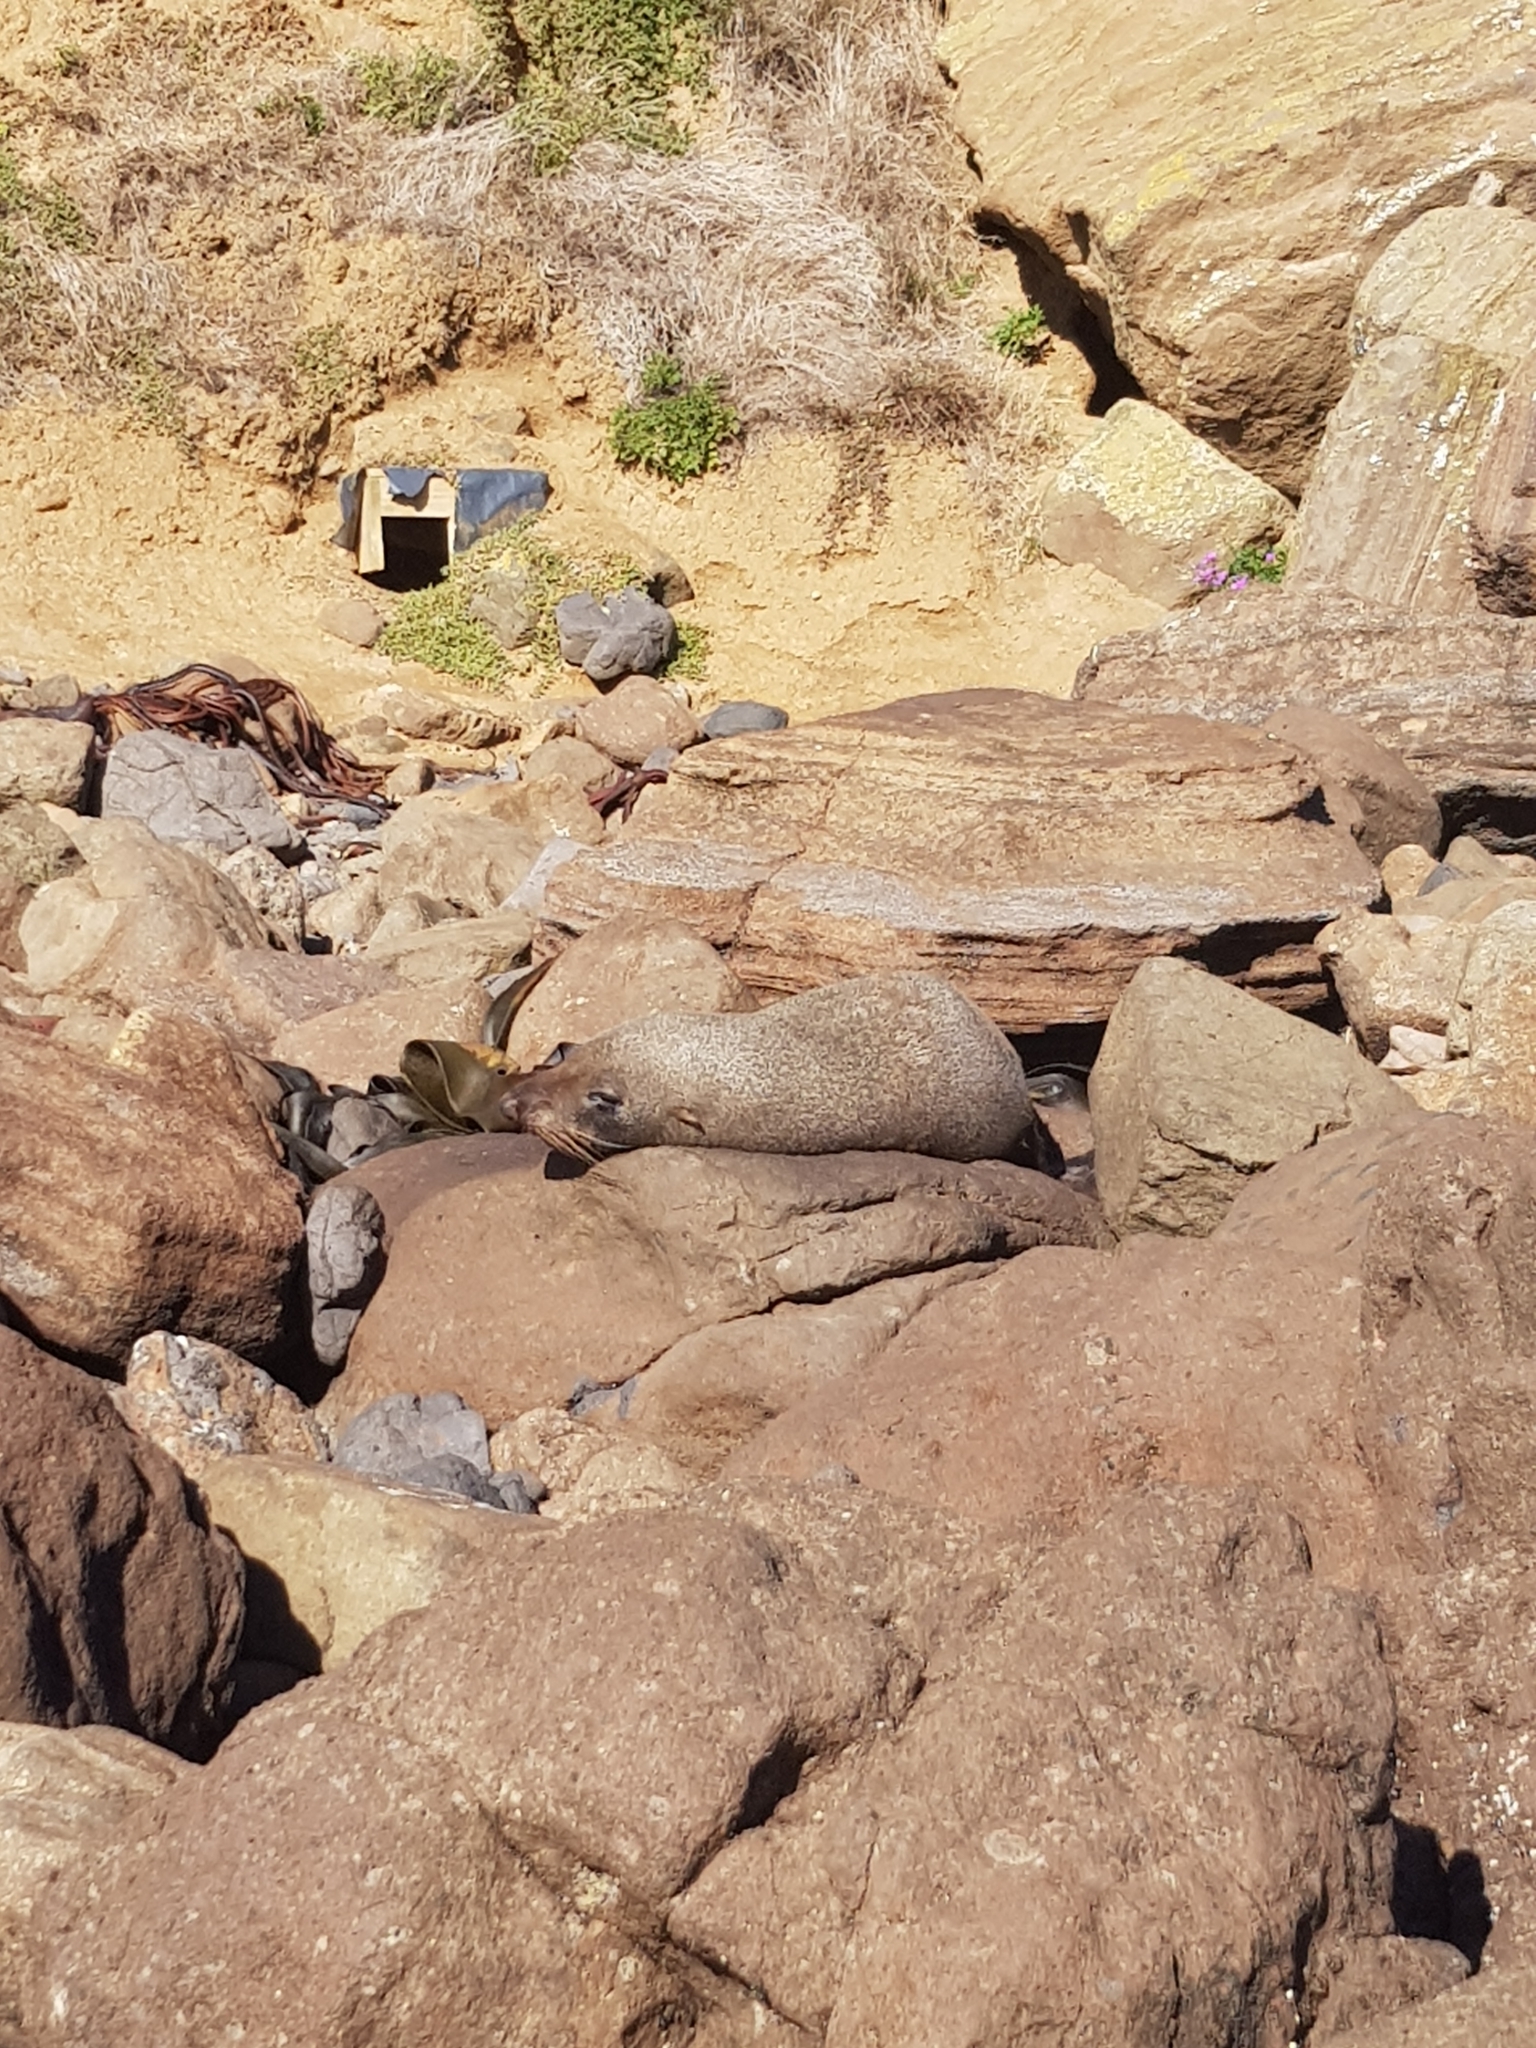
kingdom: Animalia
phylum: Chordata
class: Mammalia
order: Carnivora
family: Otariidae
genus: Arctocephalus
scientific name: Arctocephalus forsteri
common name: New zealand fur seal
